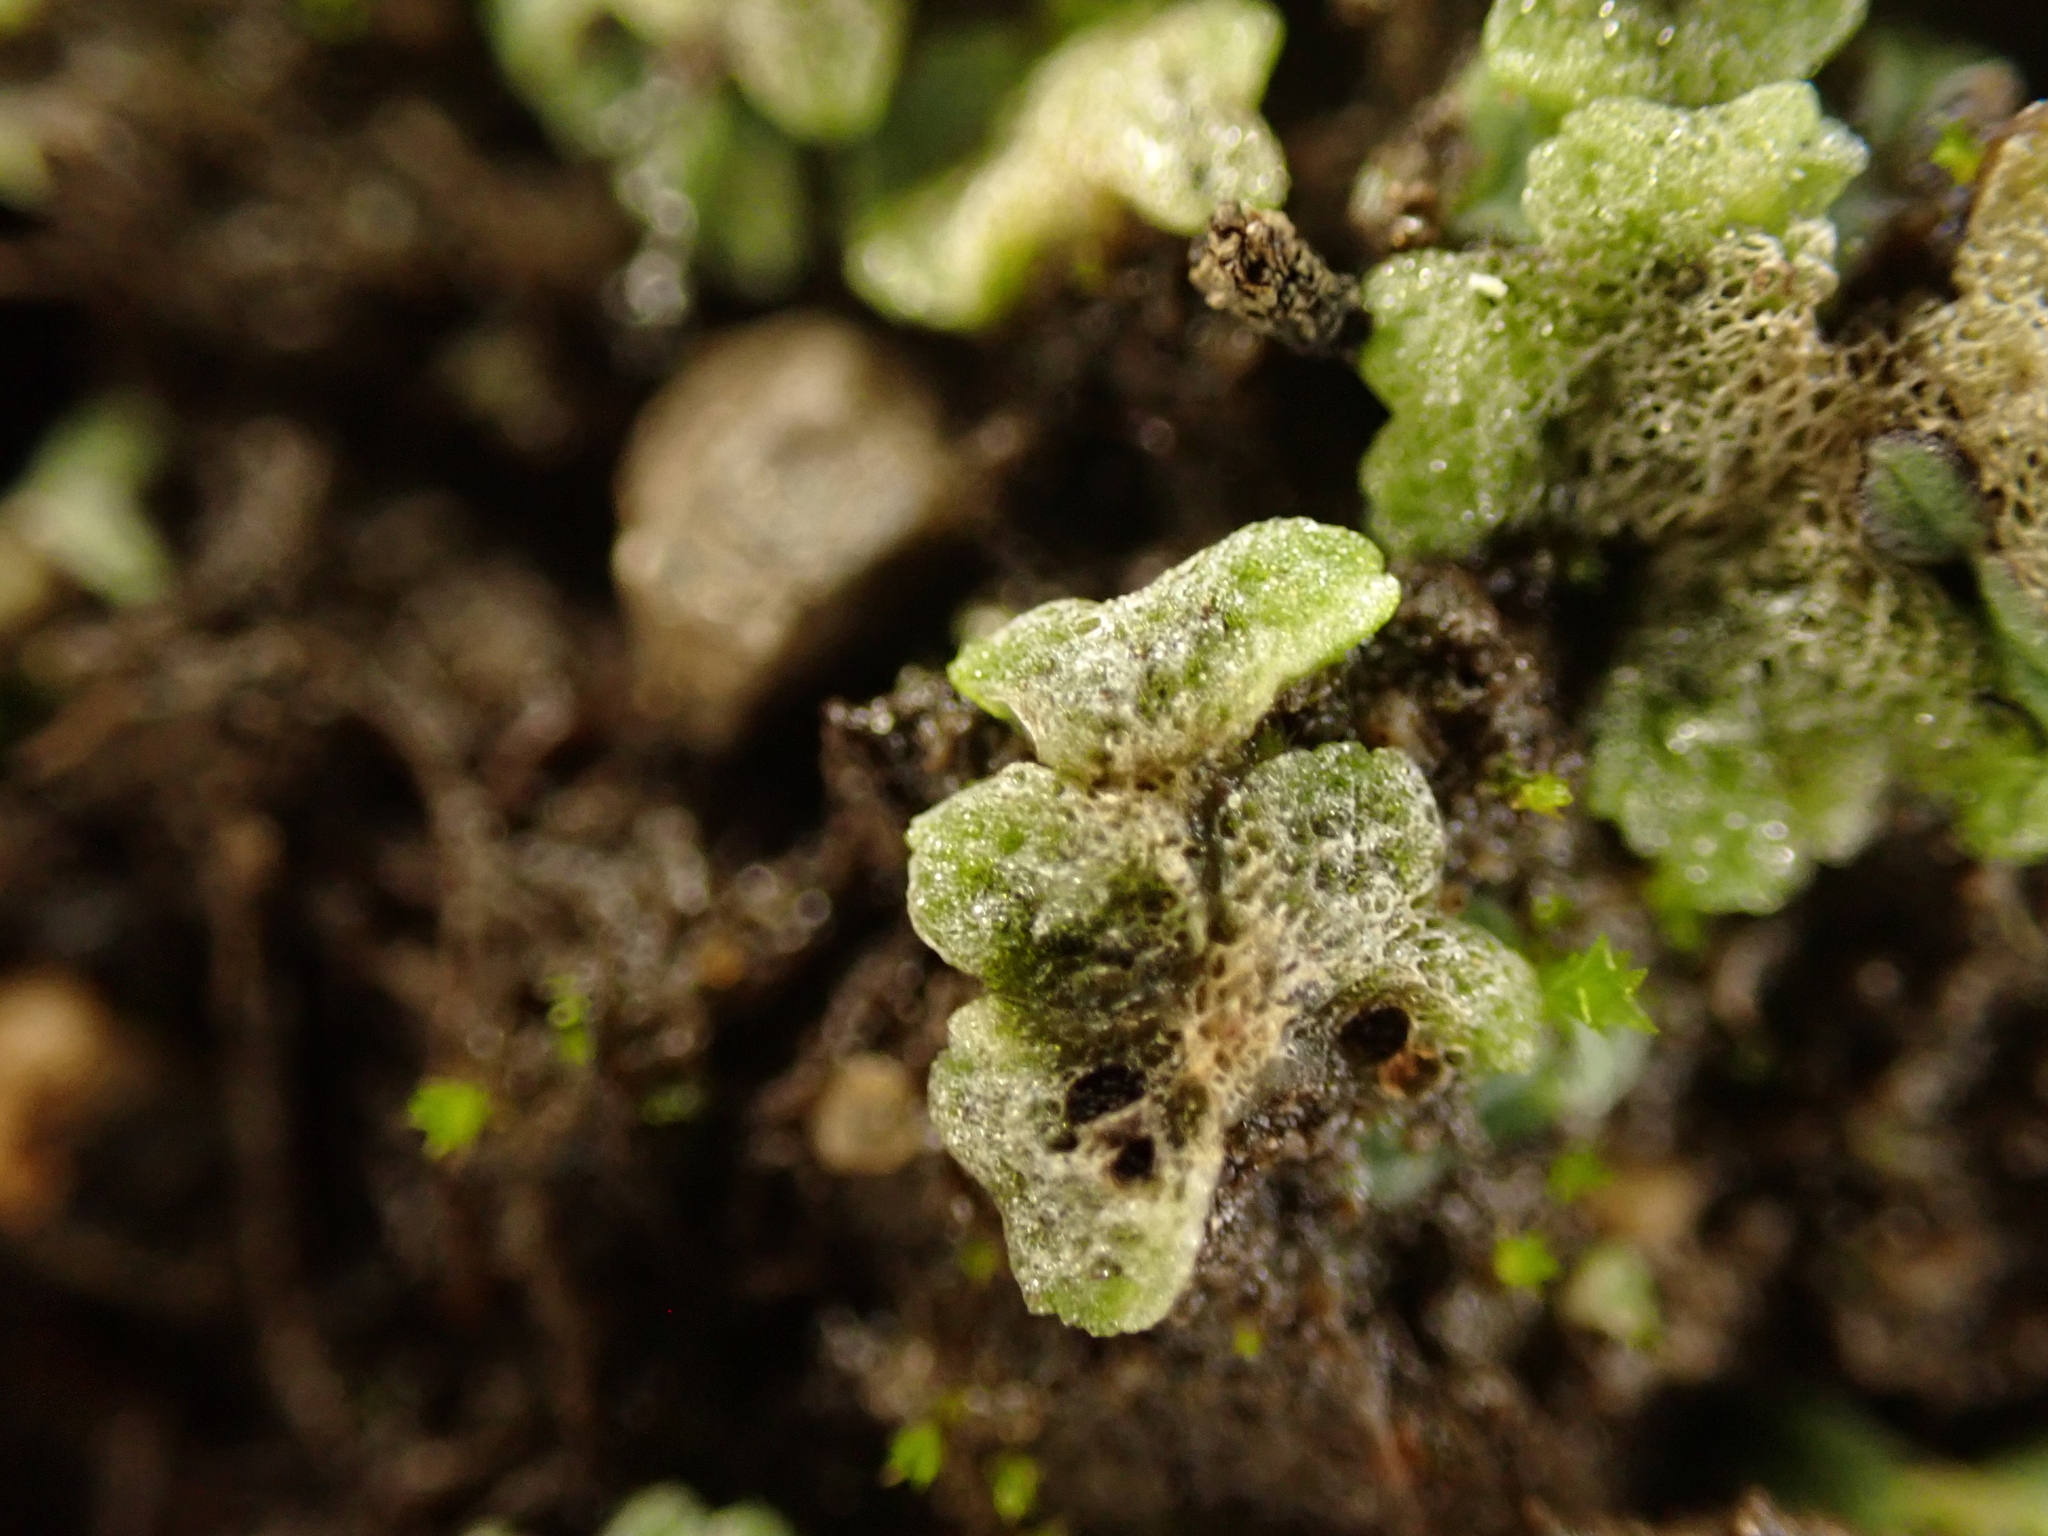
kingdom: Plantae
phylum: Marchantiophyta
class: Marchantiopsida
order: Marchantiales
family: Ricciaceae
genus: Riccia
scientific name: Riccia cavernosa
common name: Cavernous crystalwort
